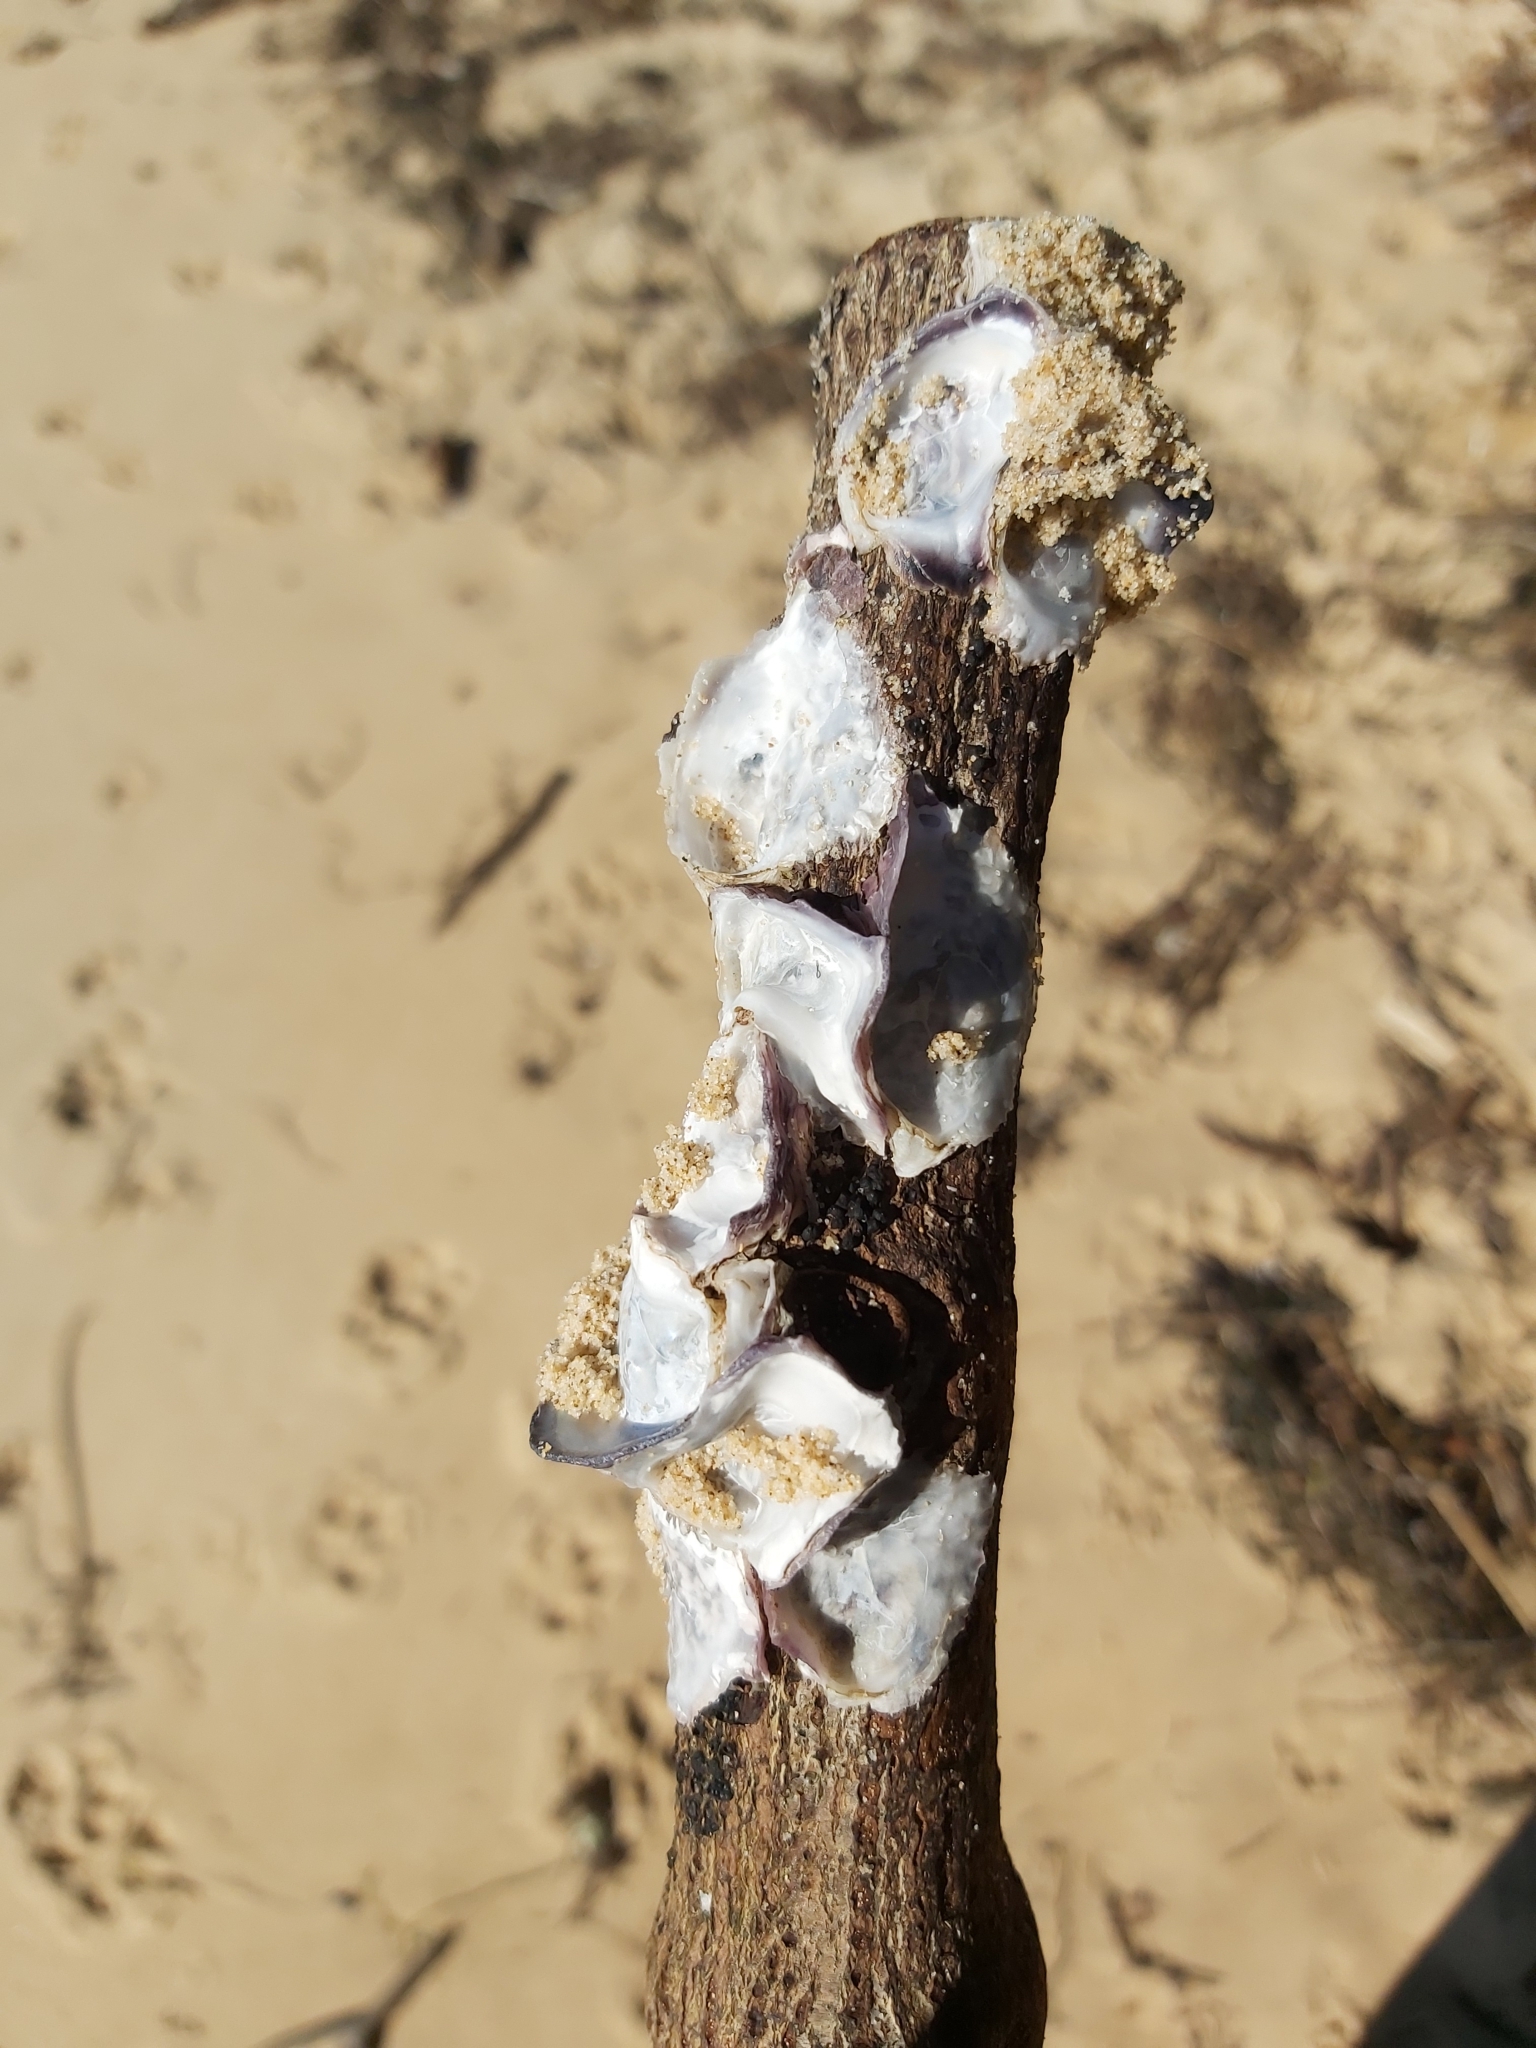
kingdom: Animalia
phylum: Mollusca
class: Bivalvia
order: Ostreida
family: Ostreidae
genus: Saccostrea
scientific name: Saccostrea glomerata
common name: Sydney cupped oyster
